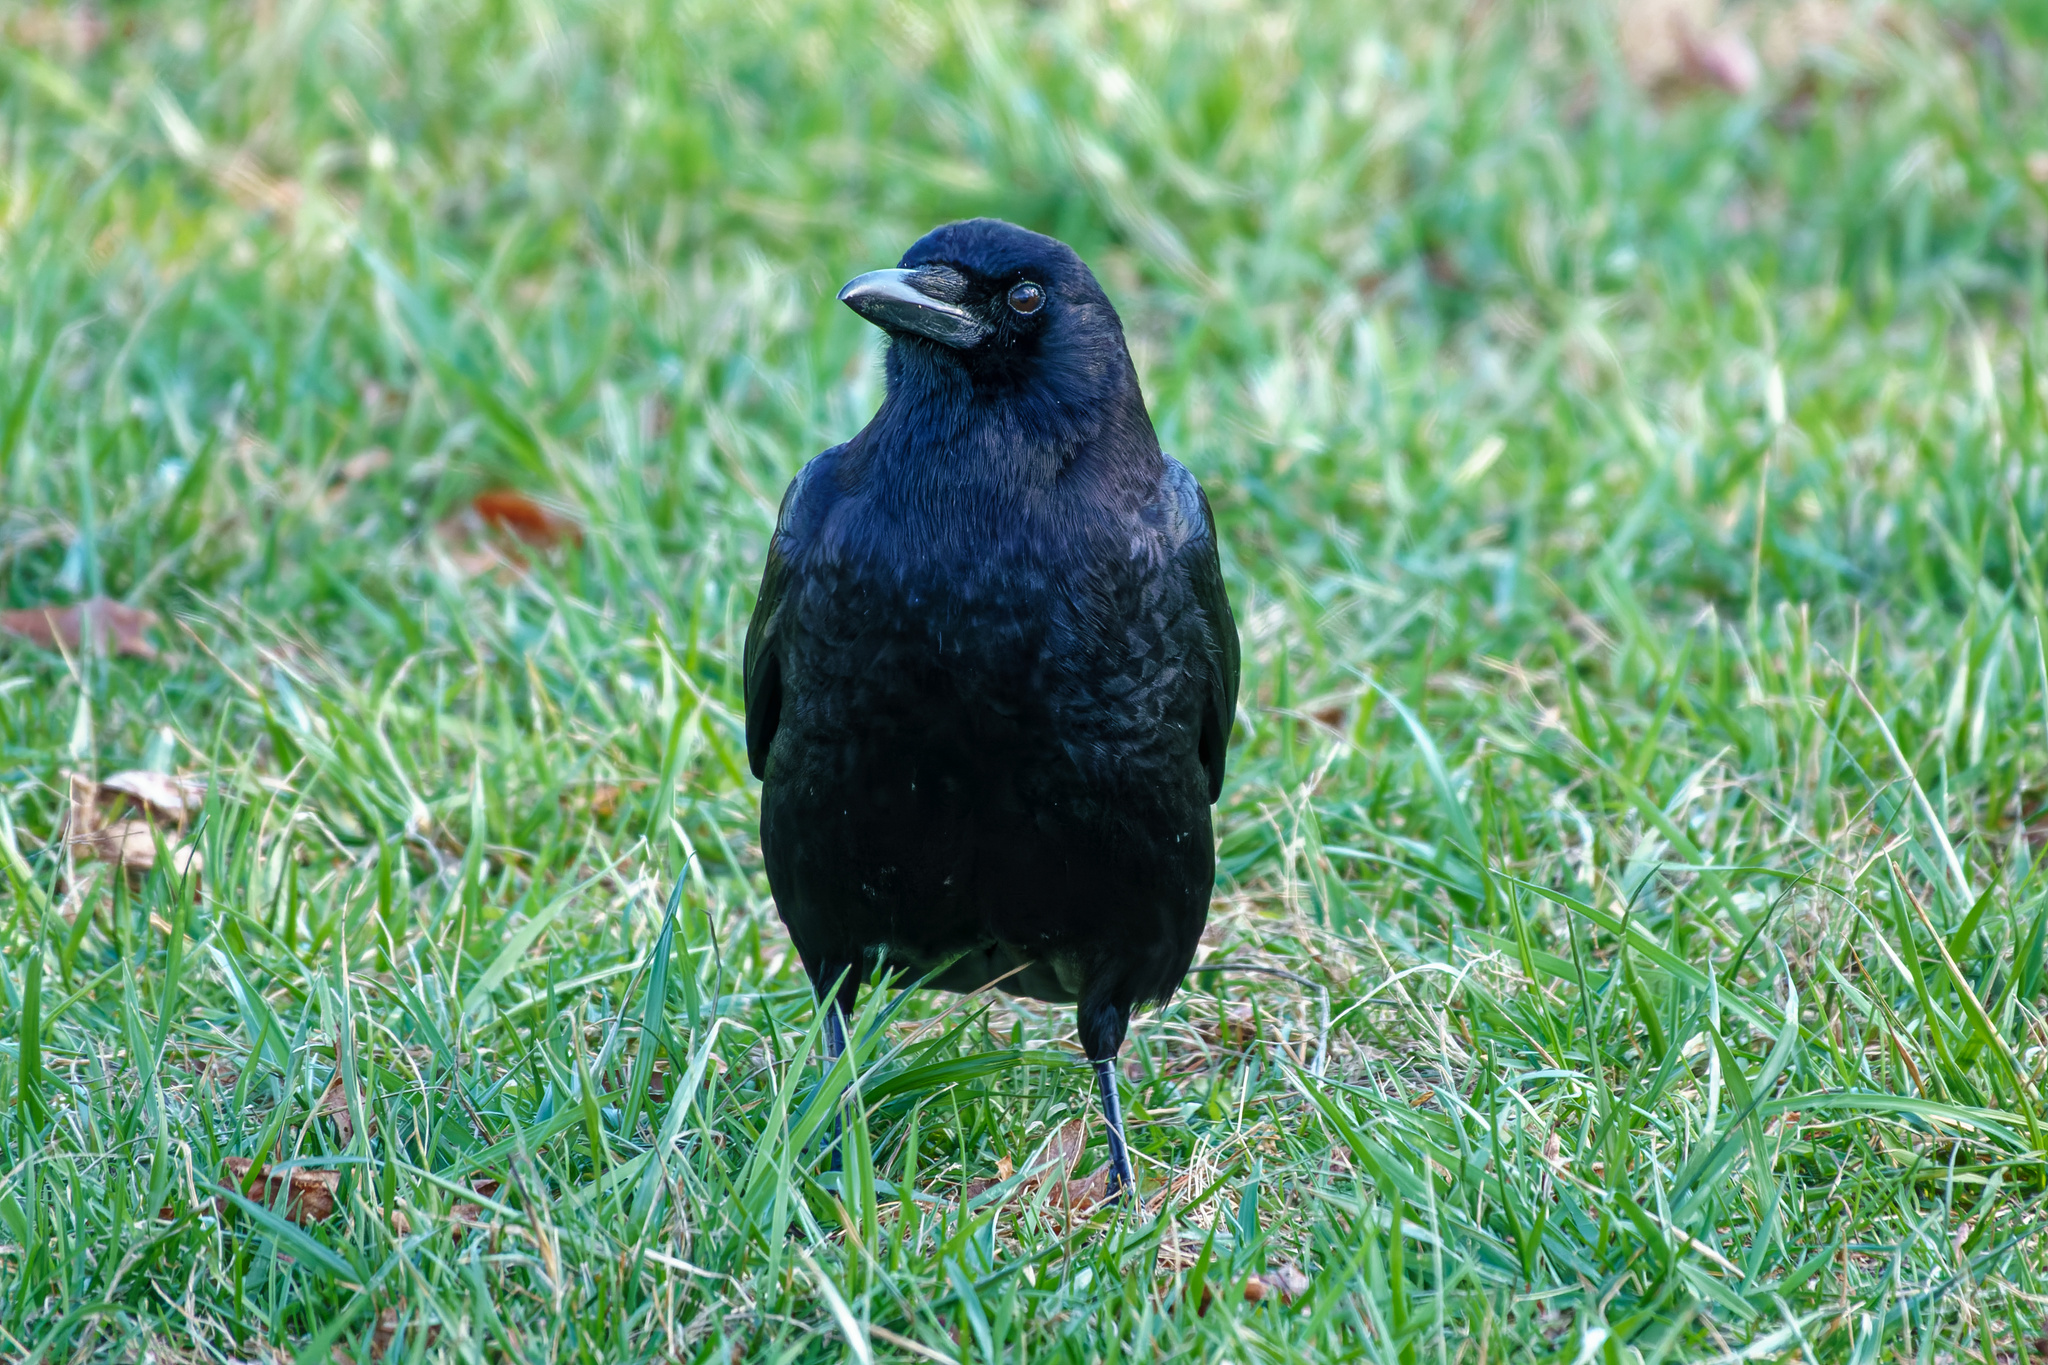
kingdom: Animalia
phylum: Chordata
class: Aves
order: Passeriformes
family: Corvidae
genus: Corvus
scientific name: Corvus brachyrhynchos
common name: American crow
